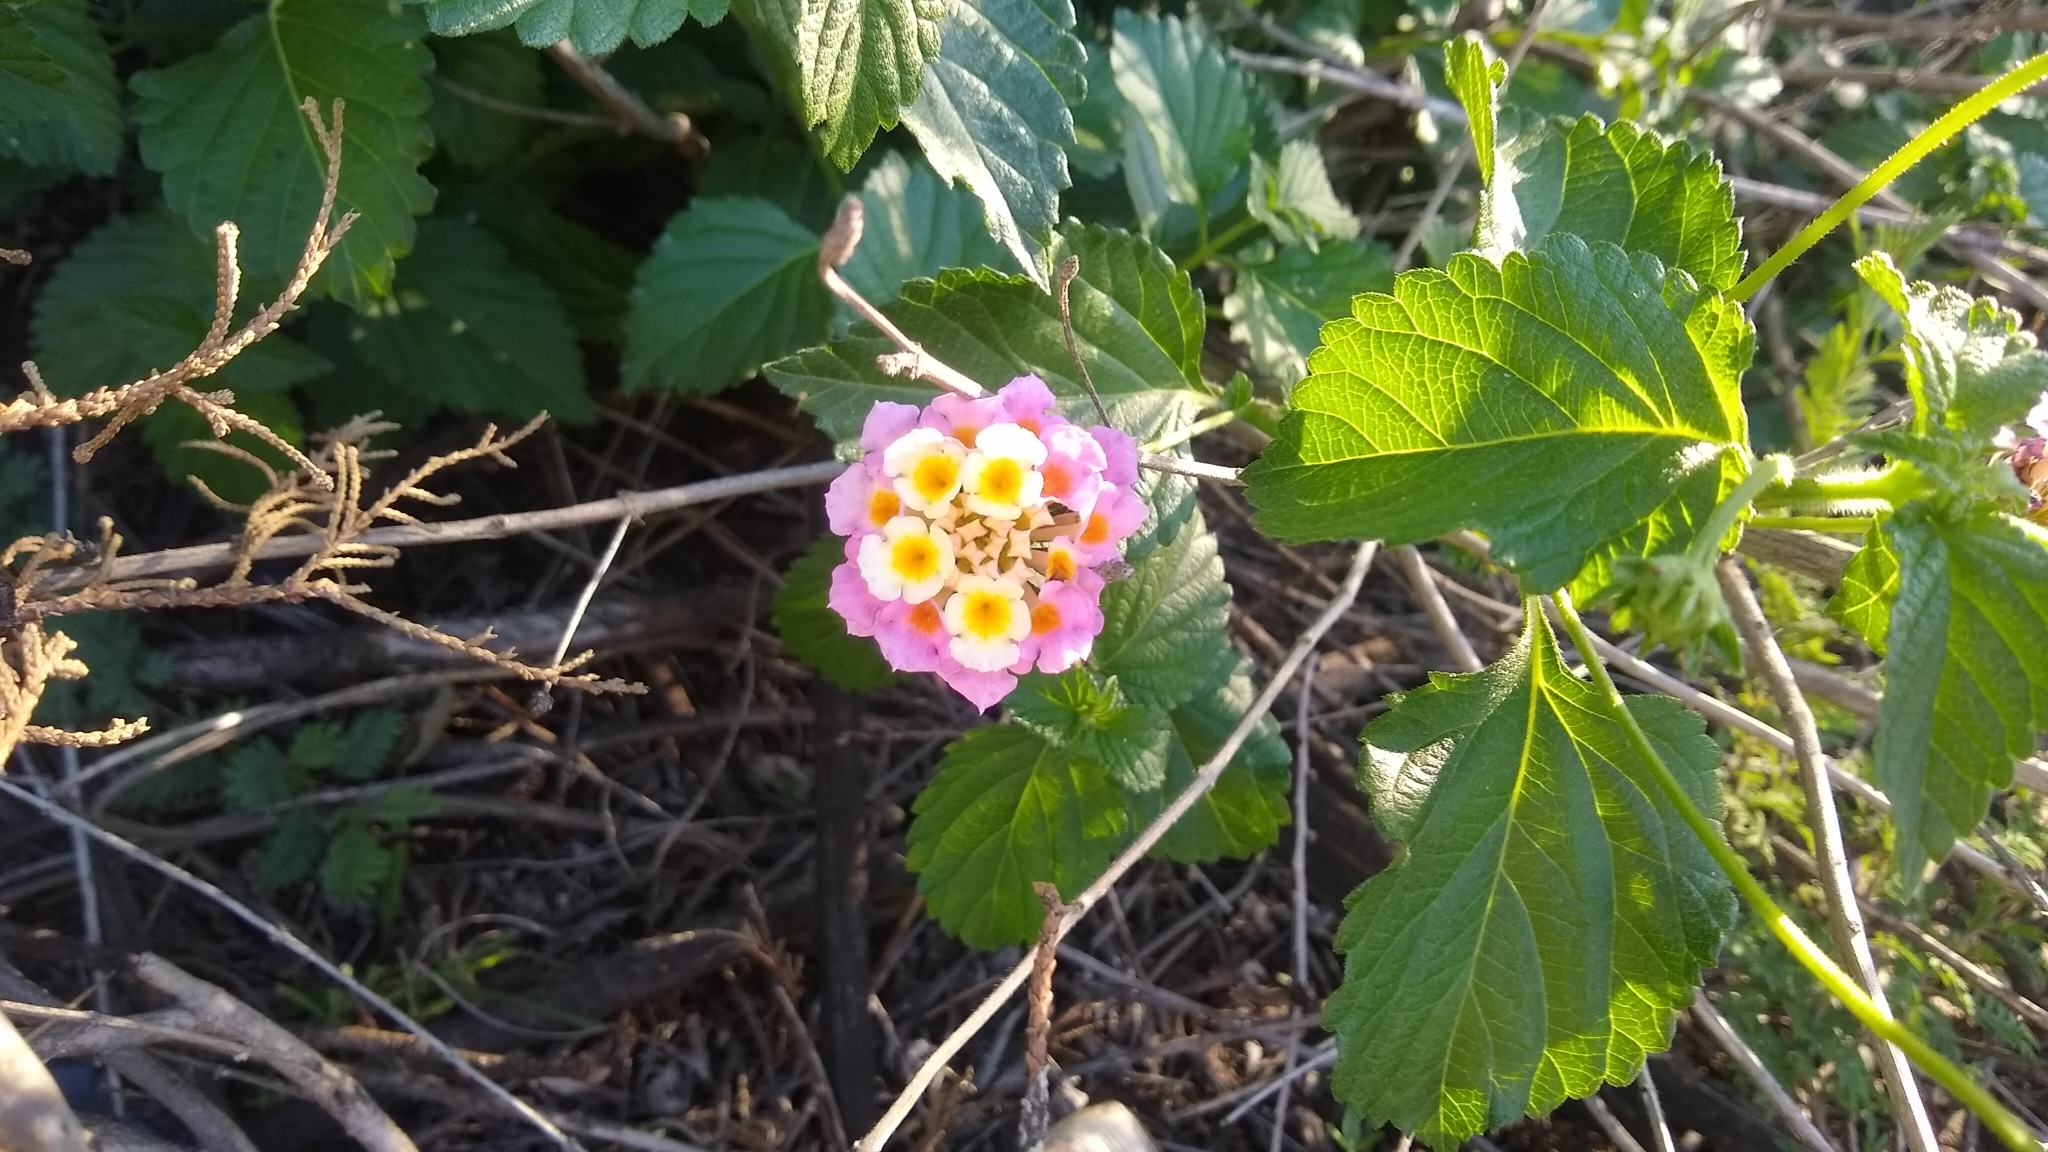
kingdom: Plantae
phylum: Tracheophyta
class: Magnoliopsida
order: Lamiales
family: Verbenaceae
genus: Lantana
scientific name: Lantana camara
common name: Lantana
